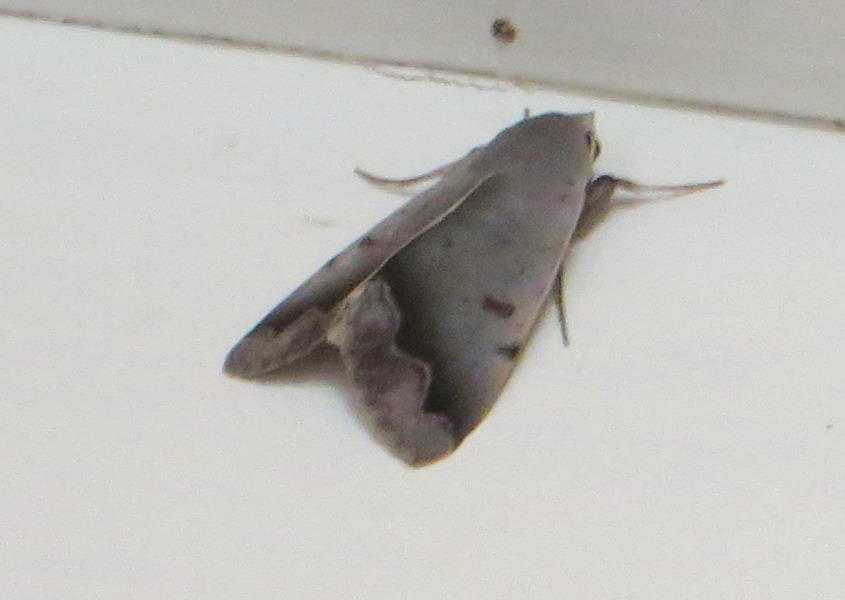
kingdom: Animalia
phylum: Arthropoda
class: Insecta
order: Lepidoptera
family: Erebidae
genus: Ophiusa
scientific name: Ophiusa dianaris
